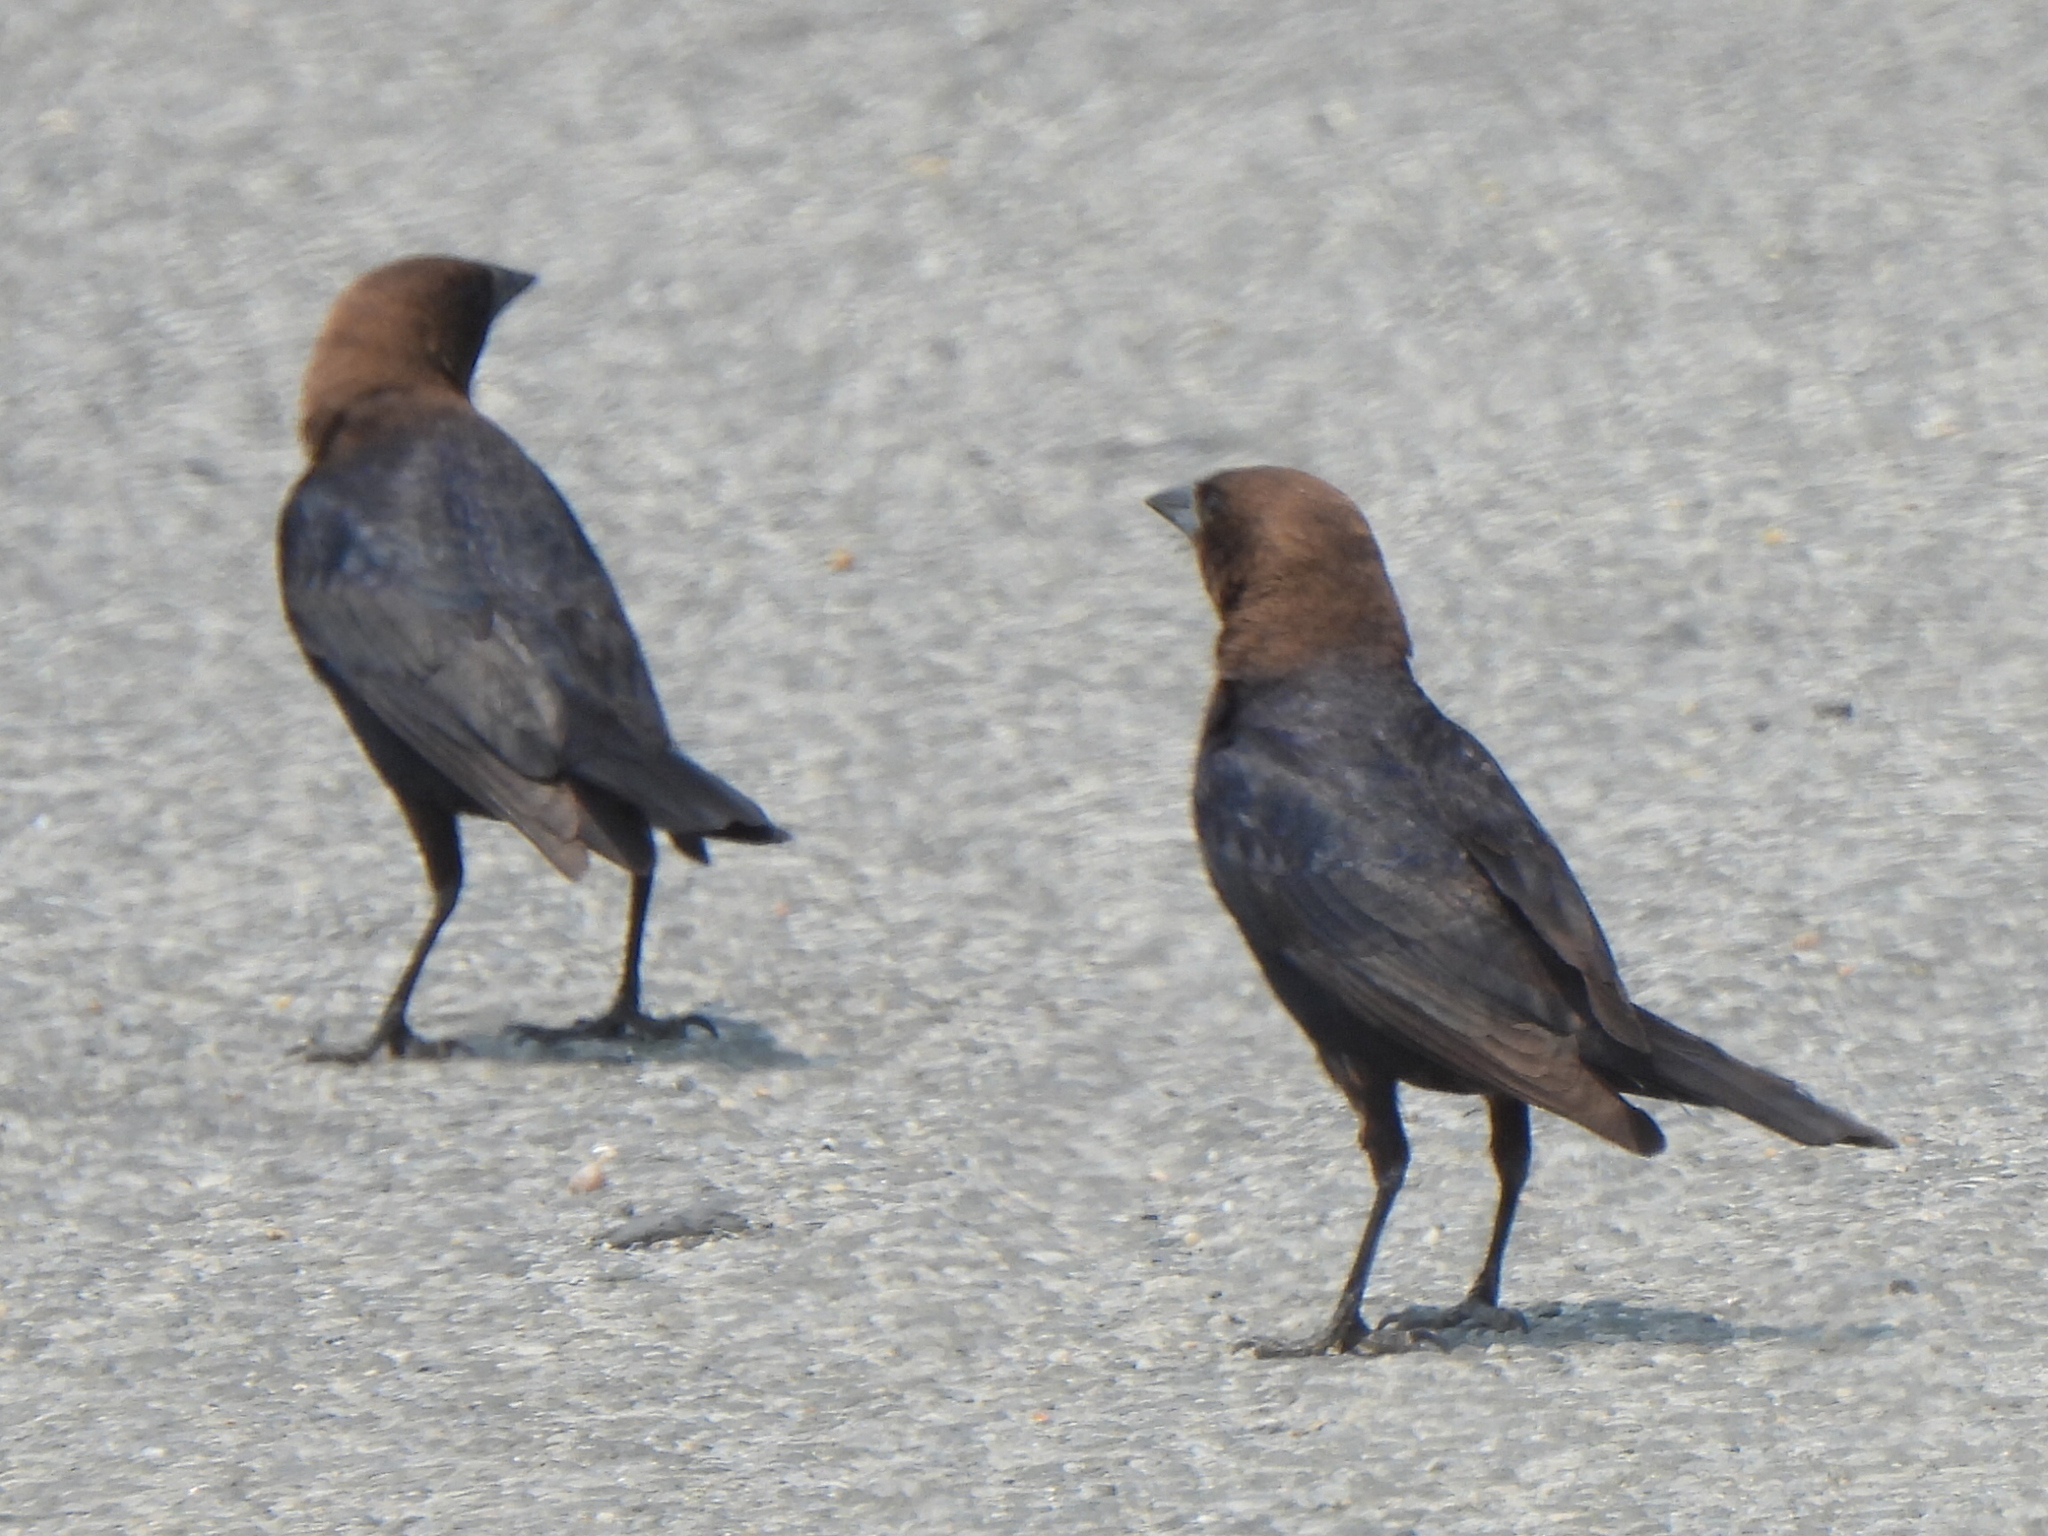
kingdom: Animalia
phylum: Chordata
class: Aves
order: Passeriformes
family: Icteridae
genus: Molothrus
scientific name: Molothrus ater
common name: Brown-headed cowbird
